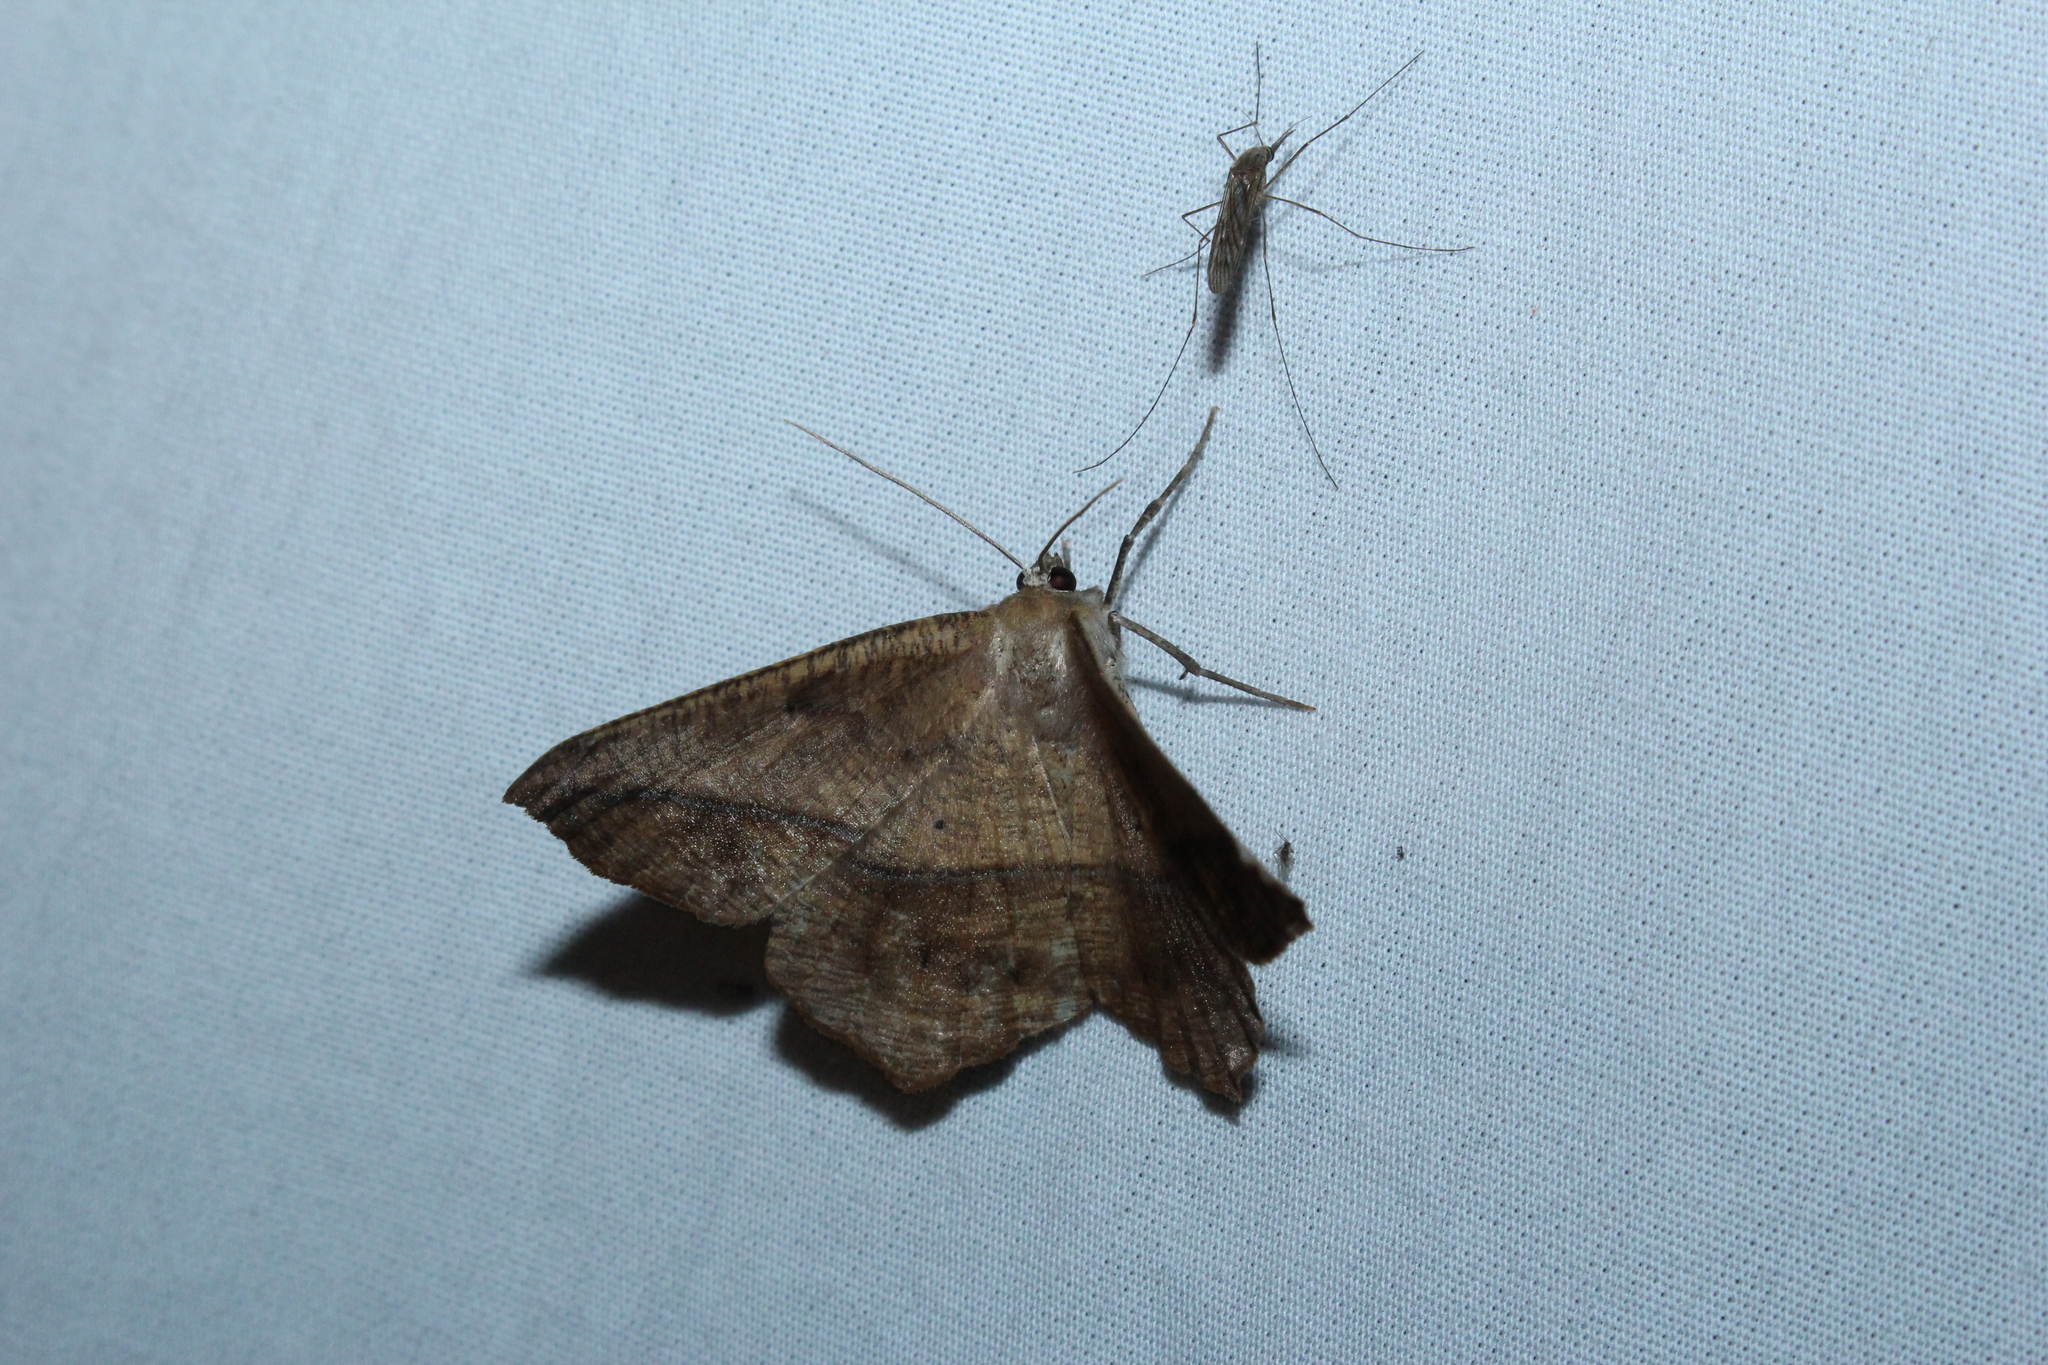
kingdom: Animalia
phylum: Arthropoda
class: Insecta
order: Lepidoptera
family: Geometridae
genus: Prochoerodes
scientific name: Prochoerodes lineola
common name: Large maple spanworm
